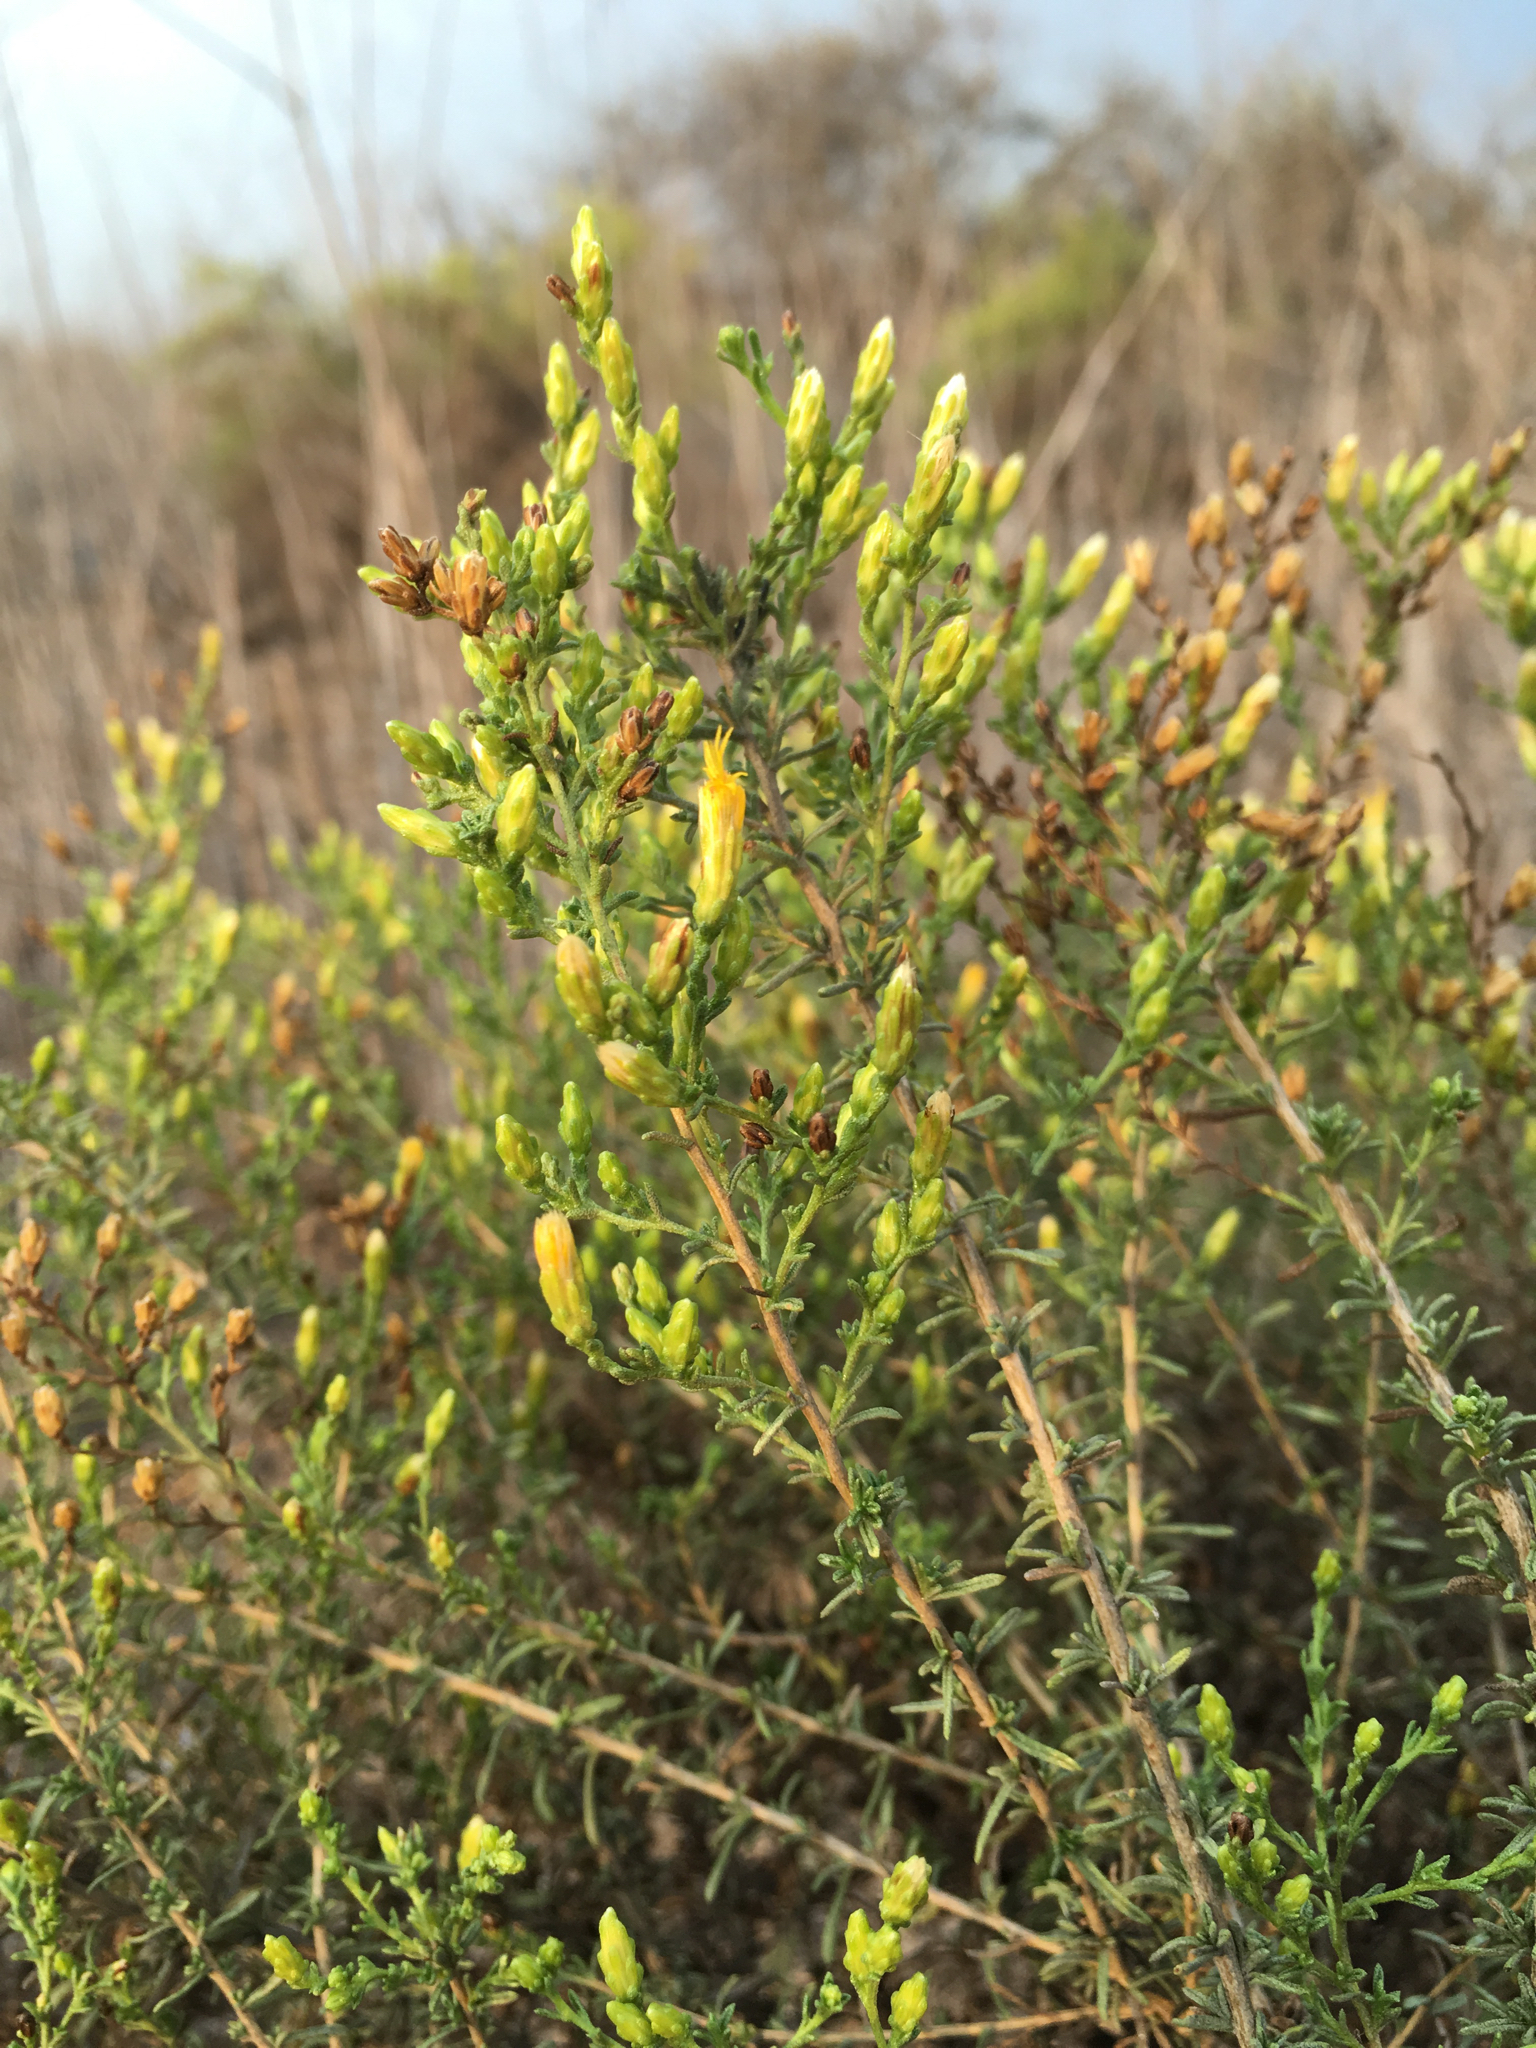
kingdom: Plantae
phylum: Tracheophyta
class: Magnoliopsida
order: Asterales
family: Asteraceae
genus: Ericameria
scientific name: Ericameria palmeri
